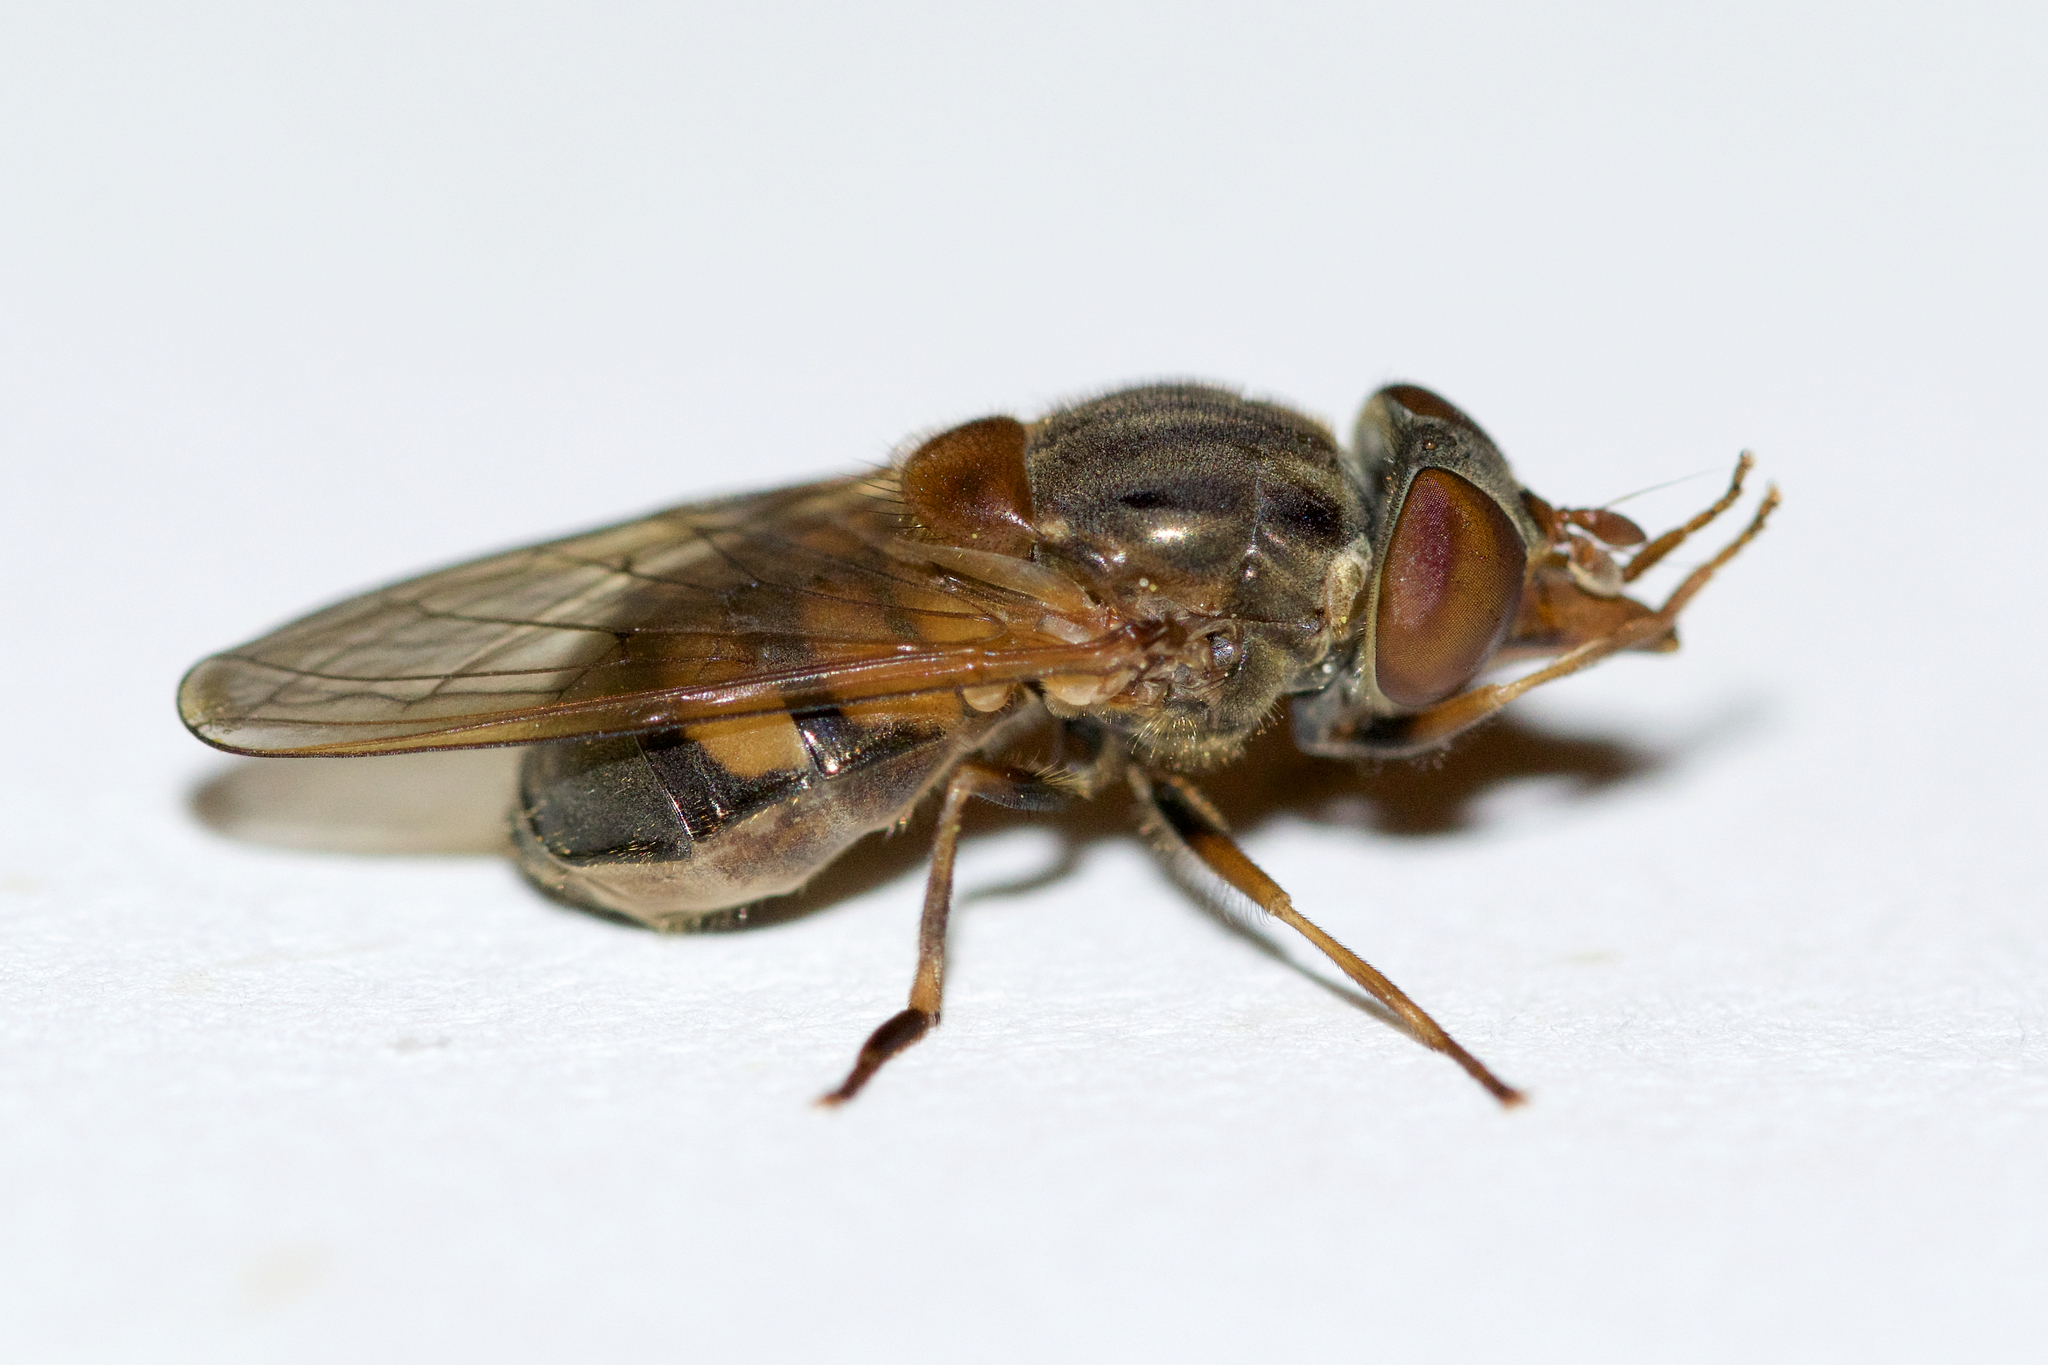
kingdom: Animalia
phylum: Arthropoda
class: Insecta
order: Diptera
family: Syrphidae
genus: Rhingia
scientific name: Rhingia nasica
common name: American snout fly
